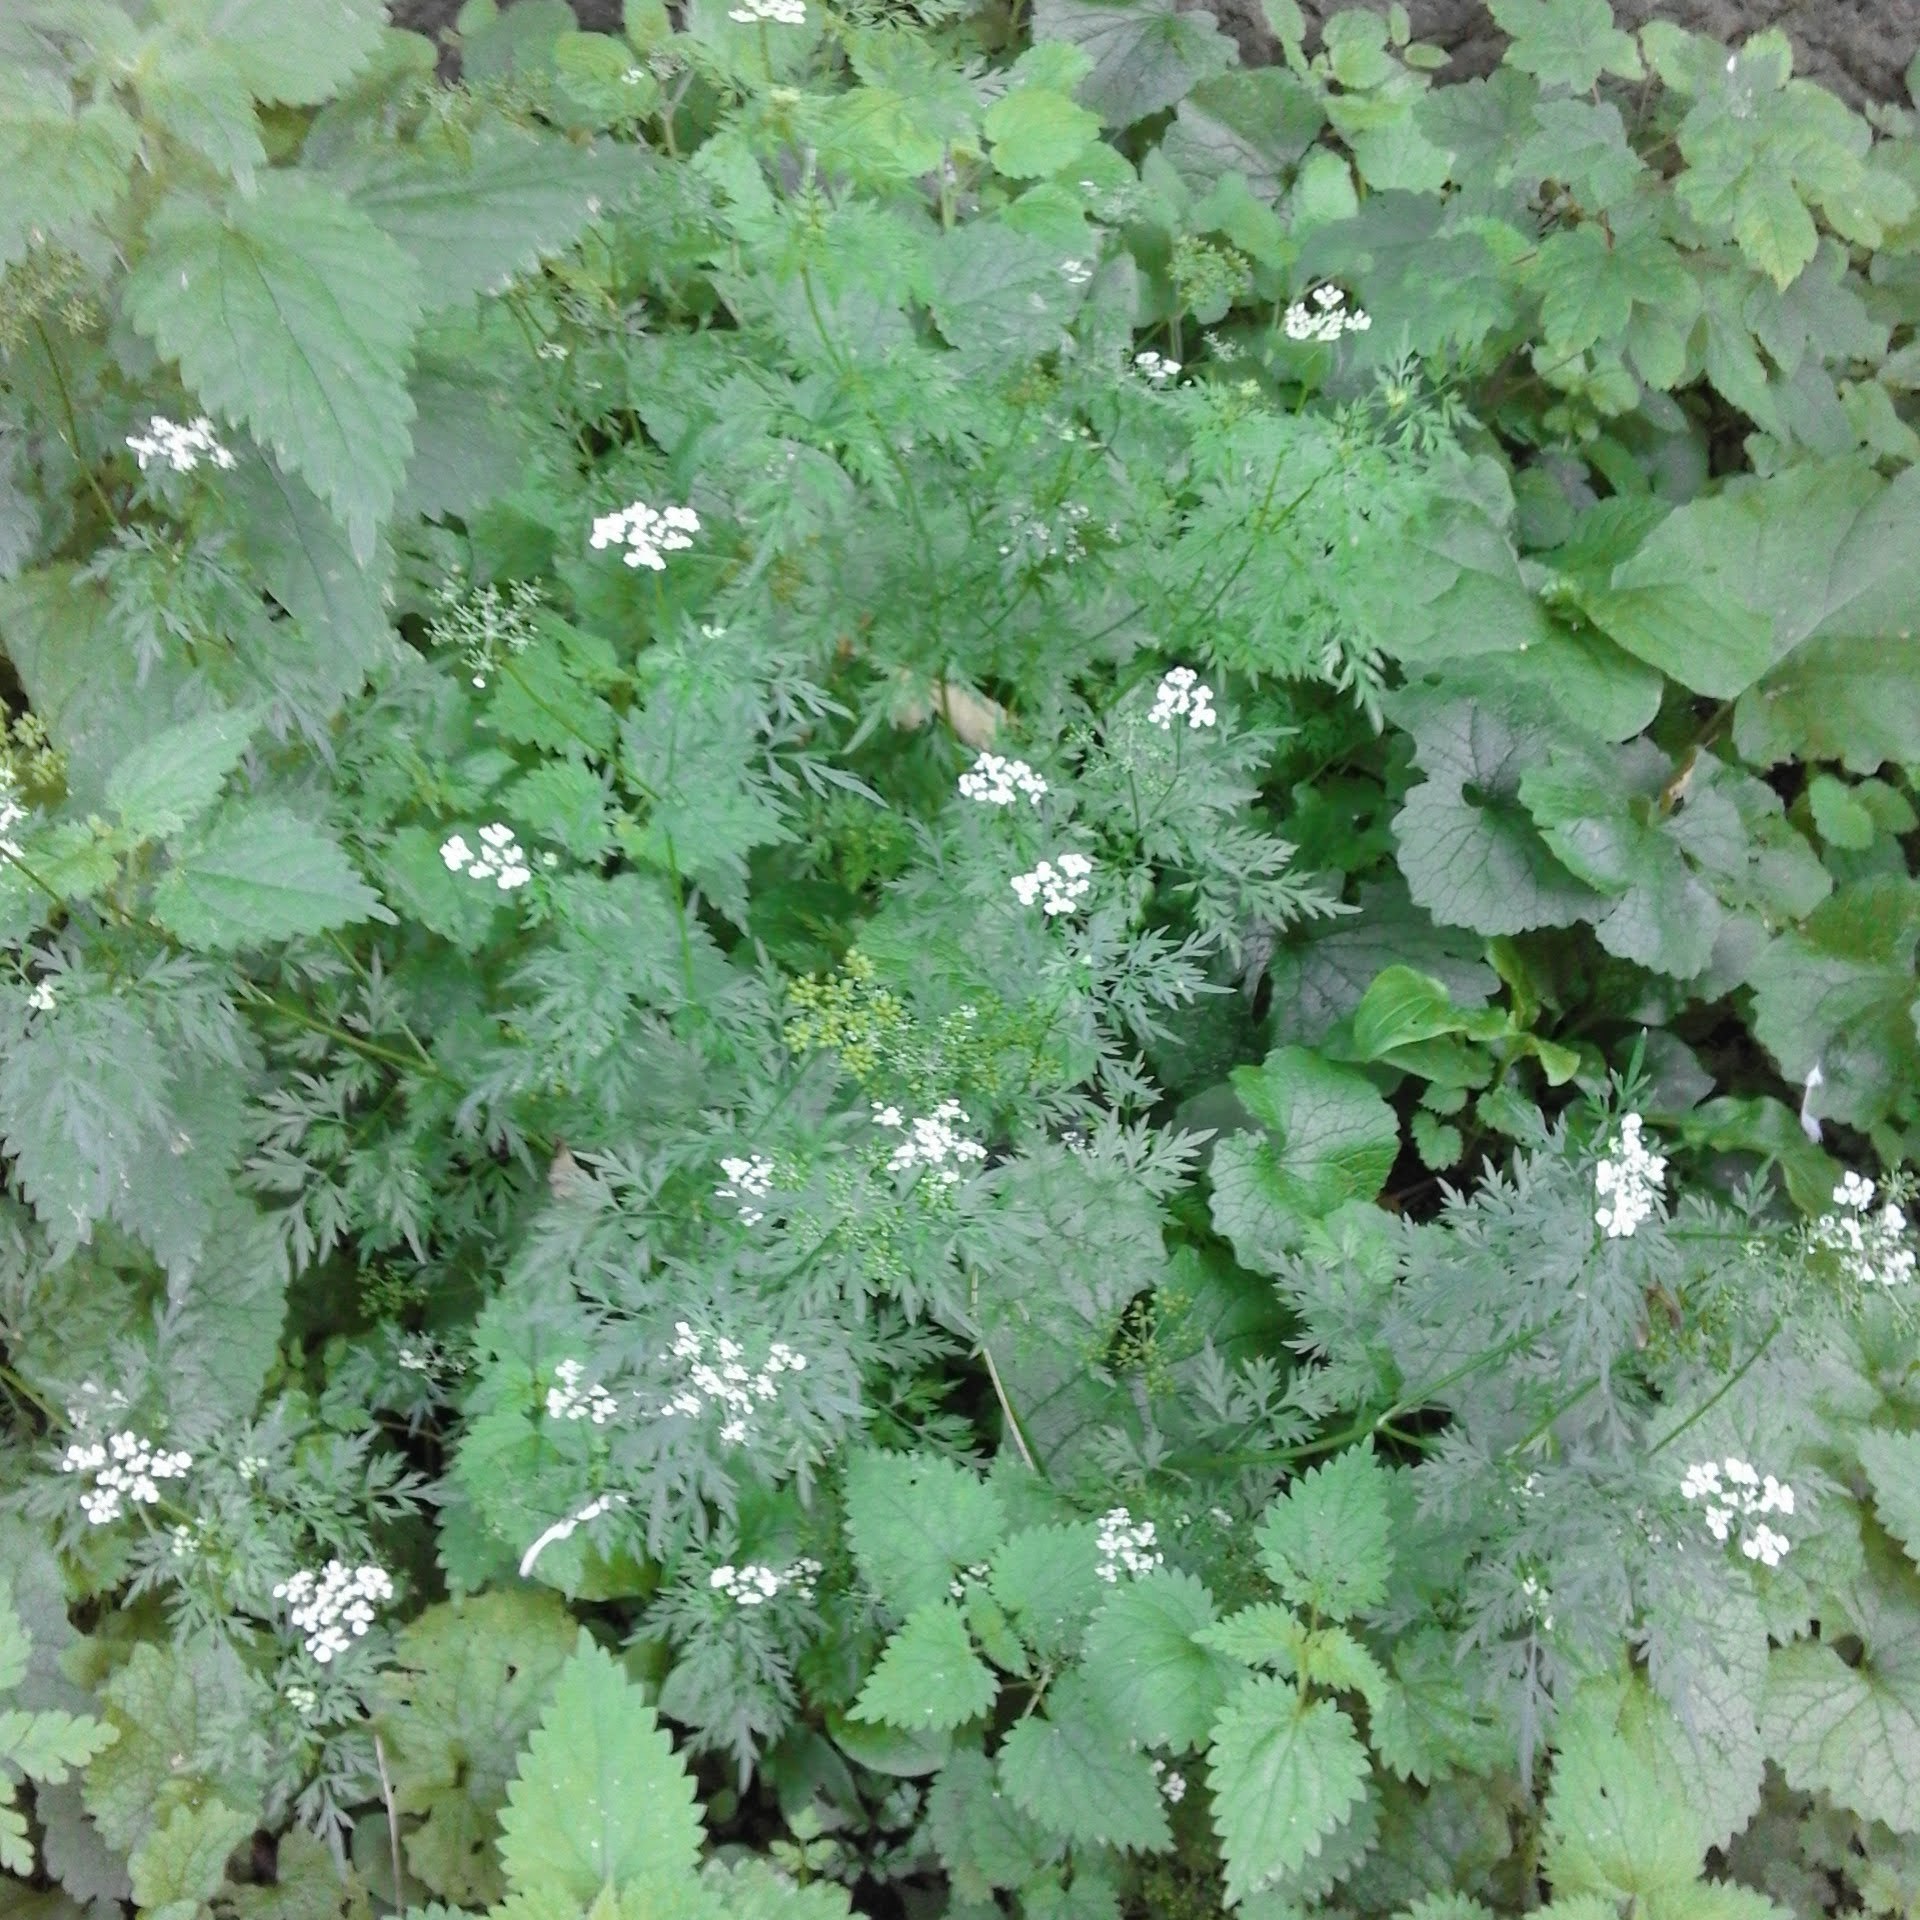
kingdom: Plantae
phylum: Tracheophyta
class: Magnoliopsida
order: Apiales
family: Apiaceae
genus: Aethusa
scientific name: Aethusa cynapium
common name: Fool's parsley
